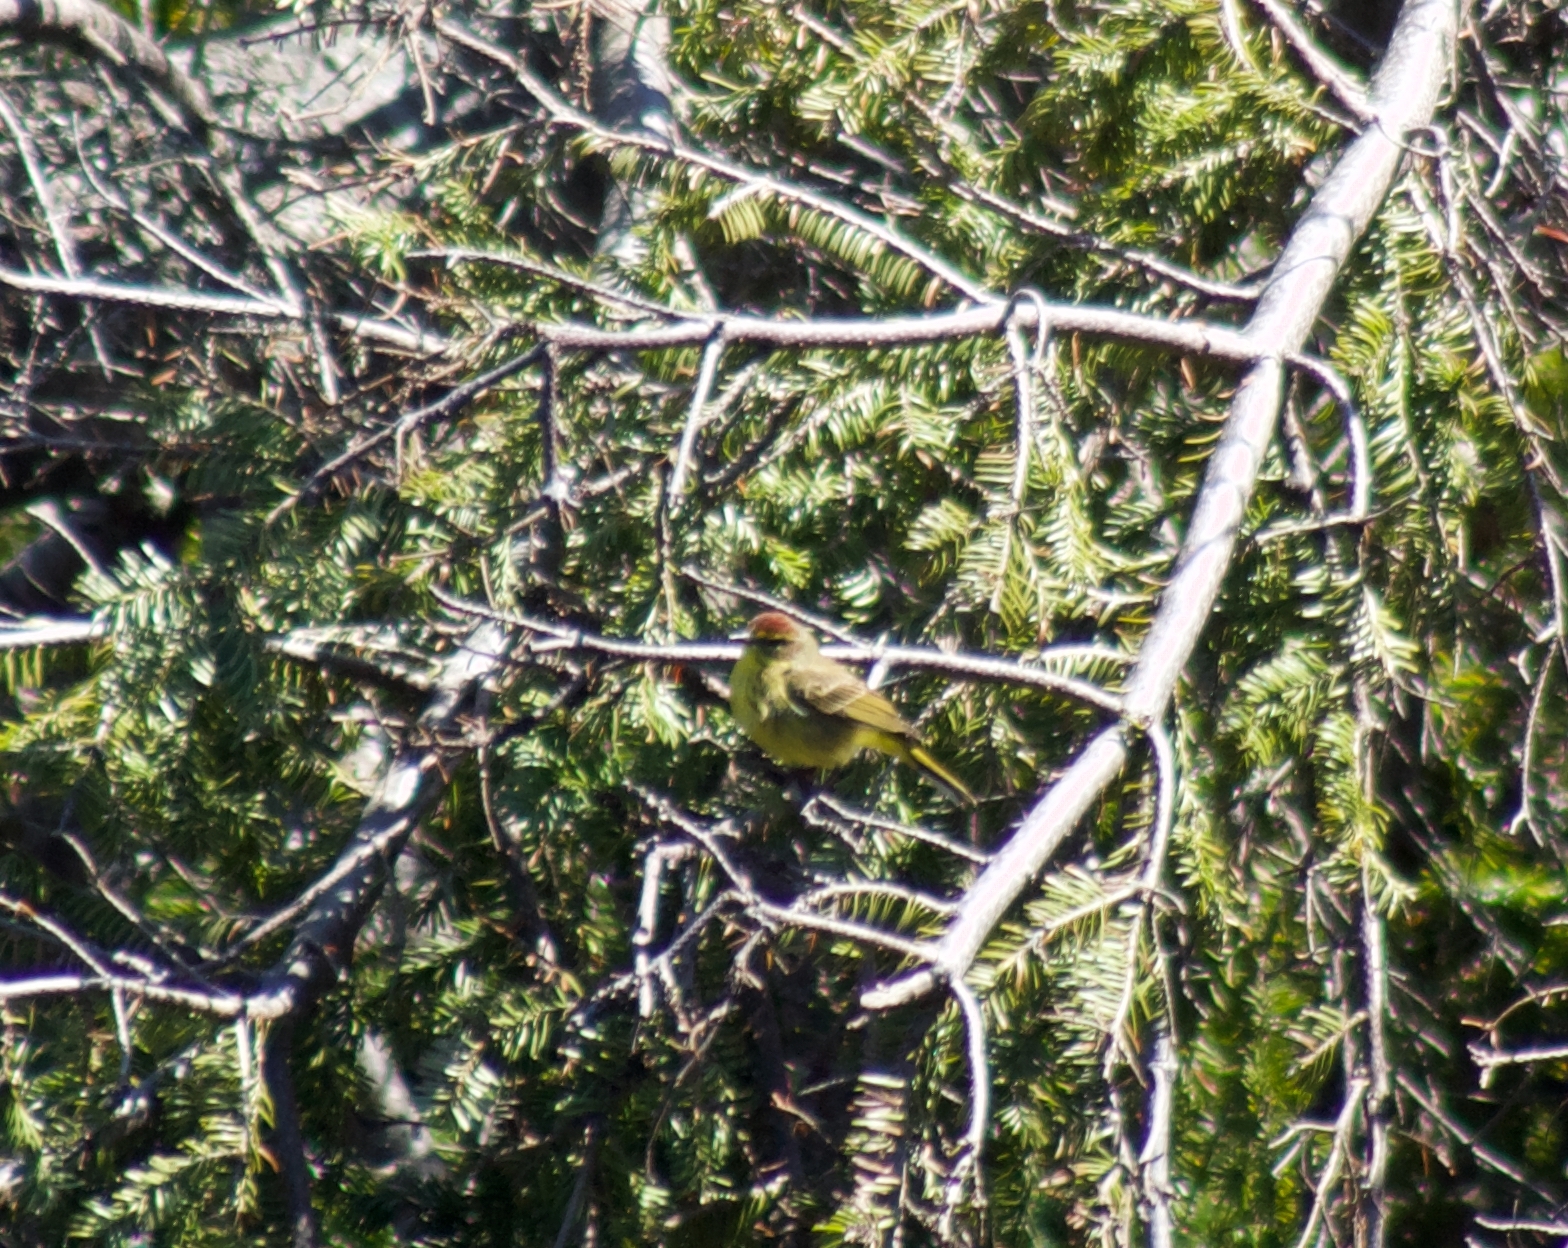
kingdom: Animalia
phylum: Chordata
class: Aves
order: Passeriformes
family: Parulidae
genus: Setophaga
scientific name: Setophaga palmarum
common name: Palm warbler
